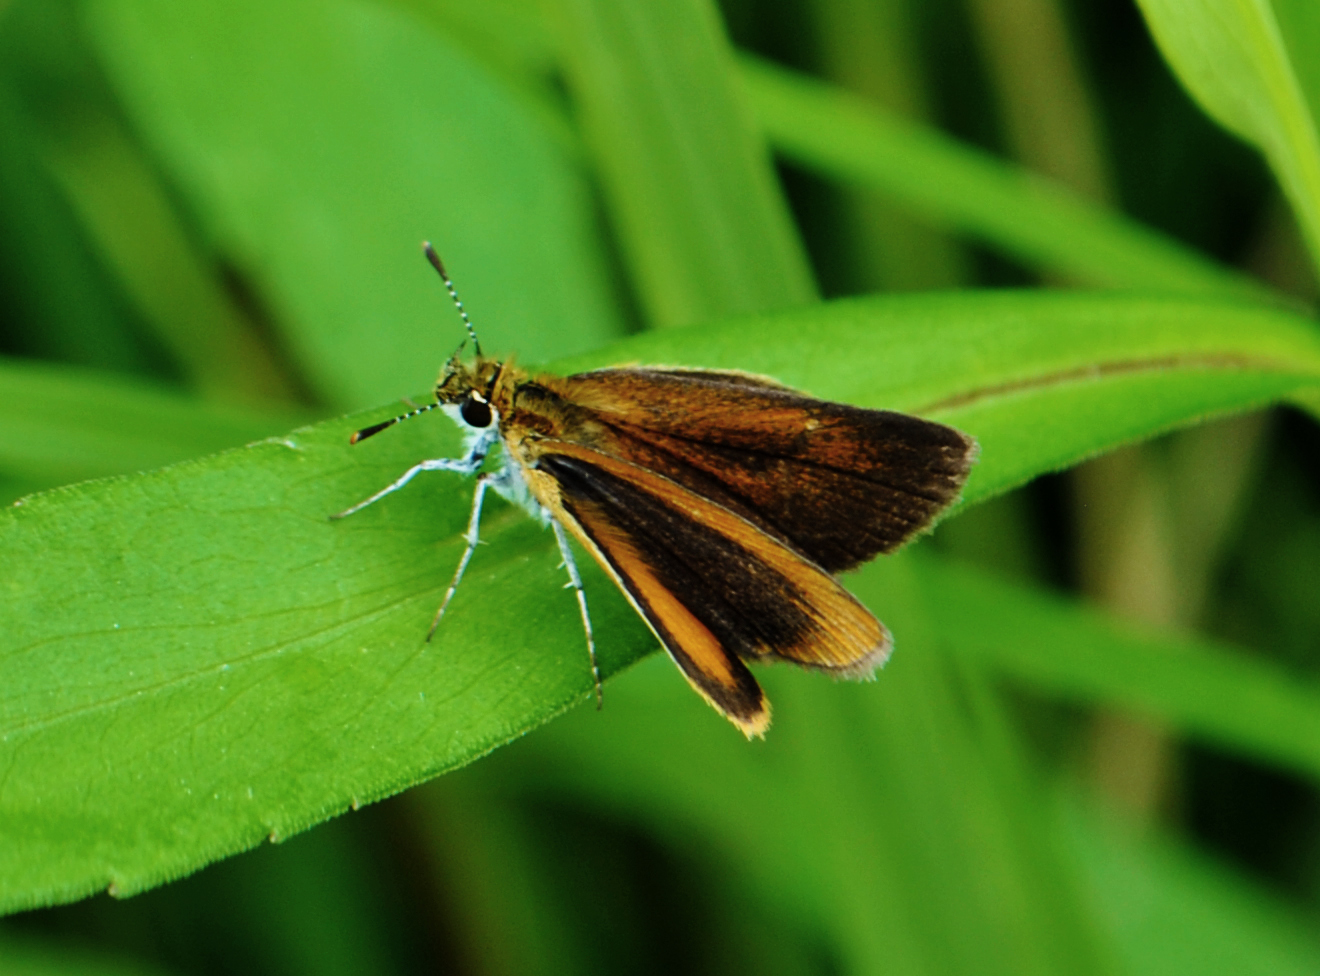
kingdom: Animalia
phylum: Arthropoda
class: Insecta
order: Lepidoptera
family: Hesperiidae
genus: Ancyloxypha
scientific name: Ancyloxypha numitor
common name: Least skipper
